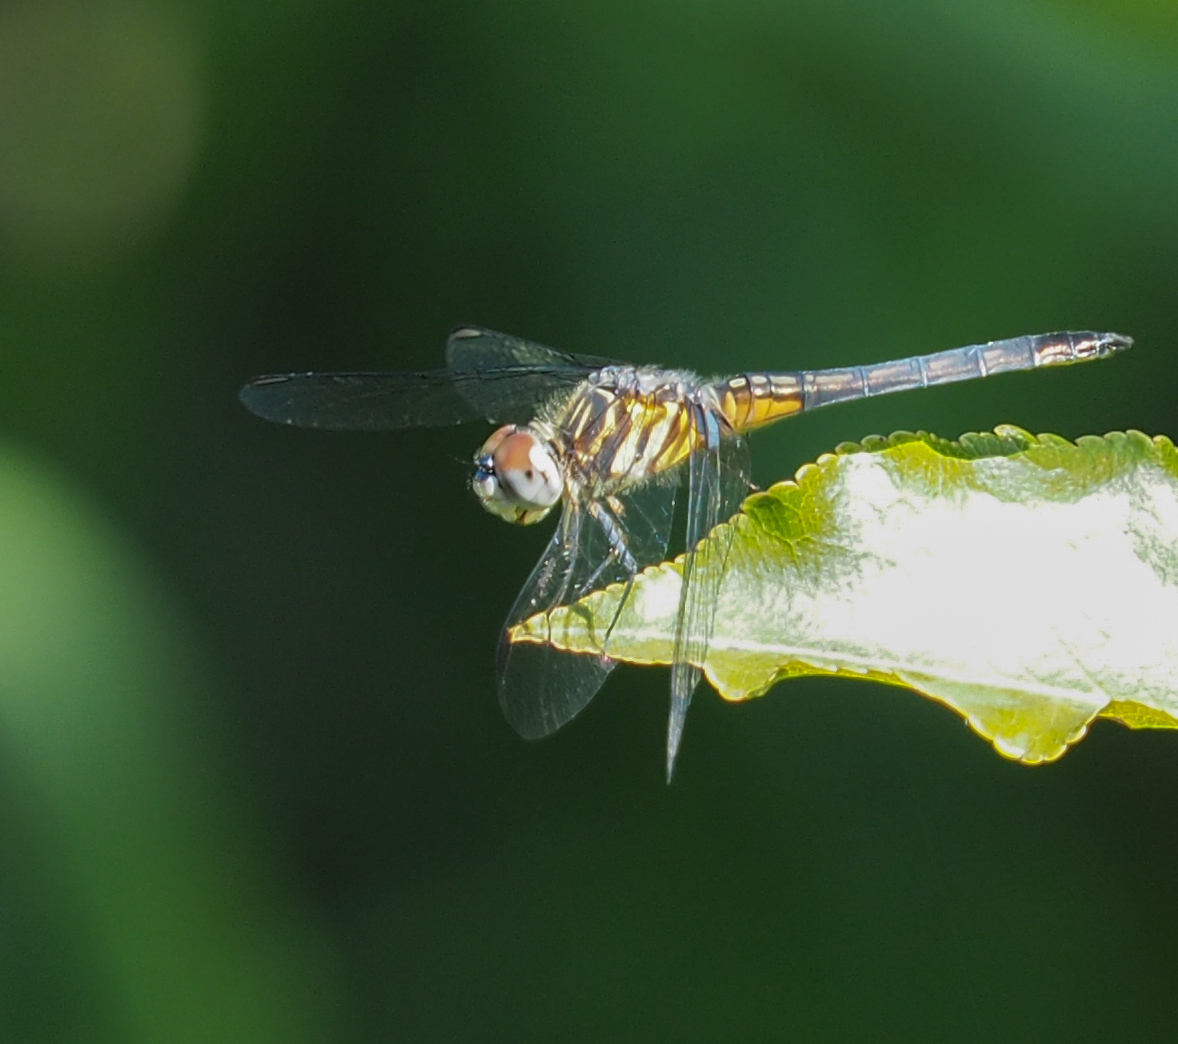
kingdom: Animalia
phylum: Arthropoda
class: Insecta
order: Odonata
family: Libellulidae
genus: Pachydiplax
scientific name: Pachydiplax longipennis
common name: Blue dasher
